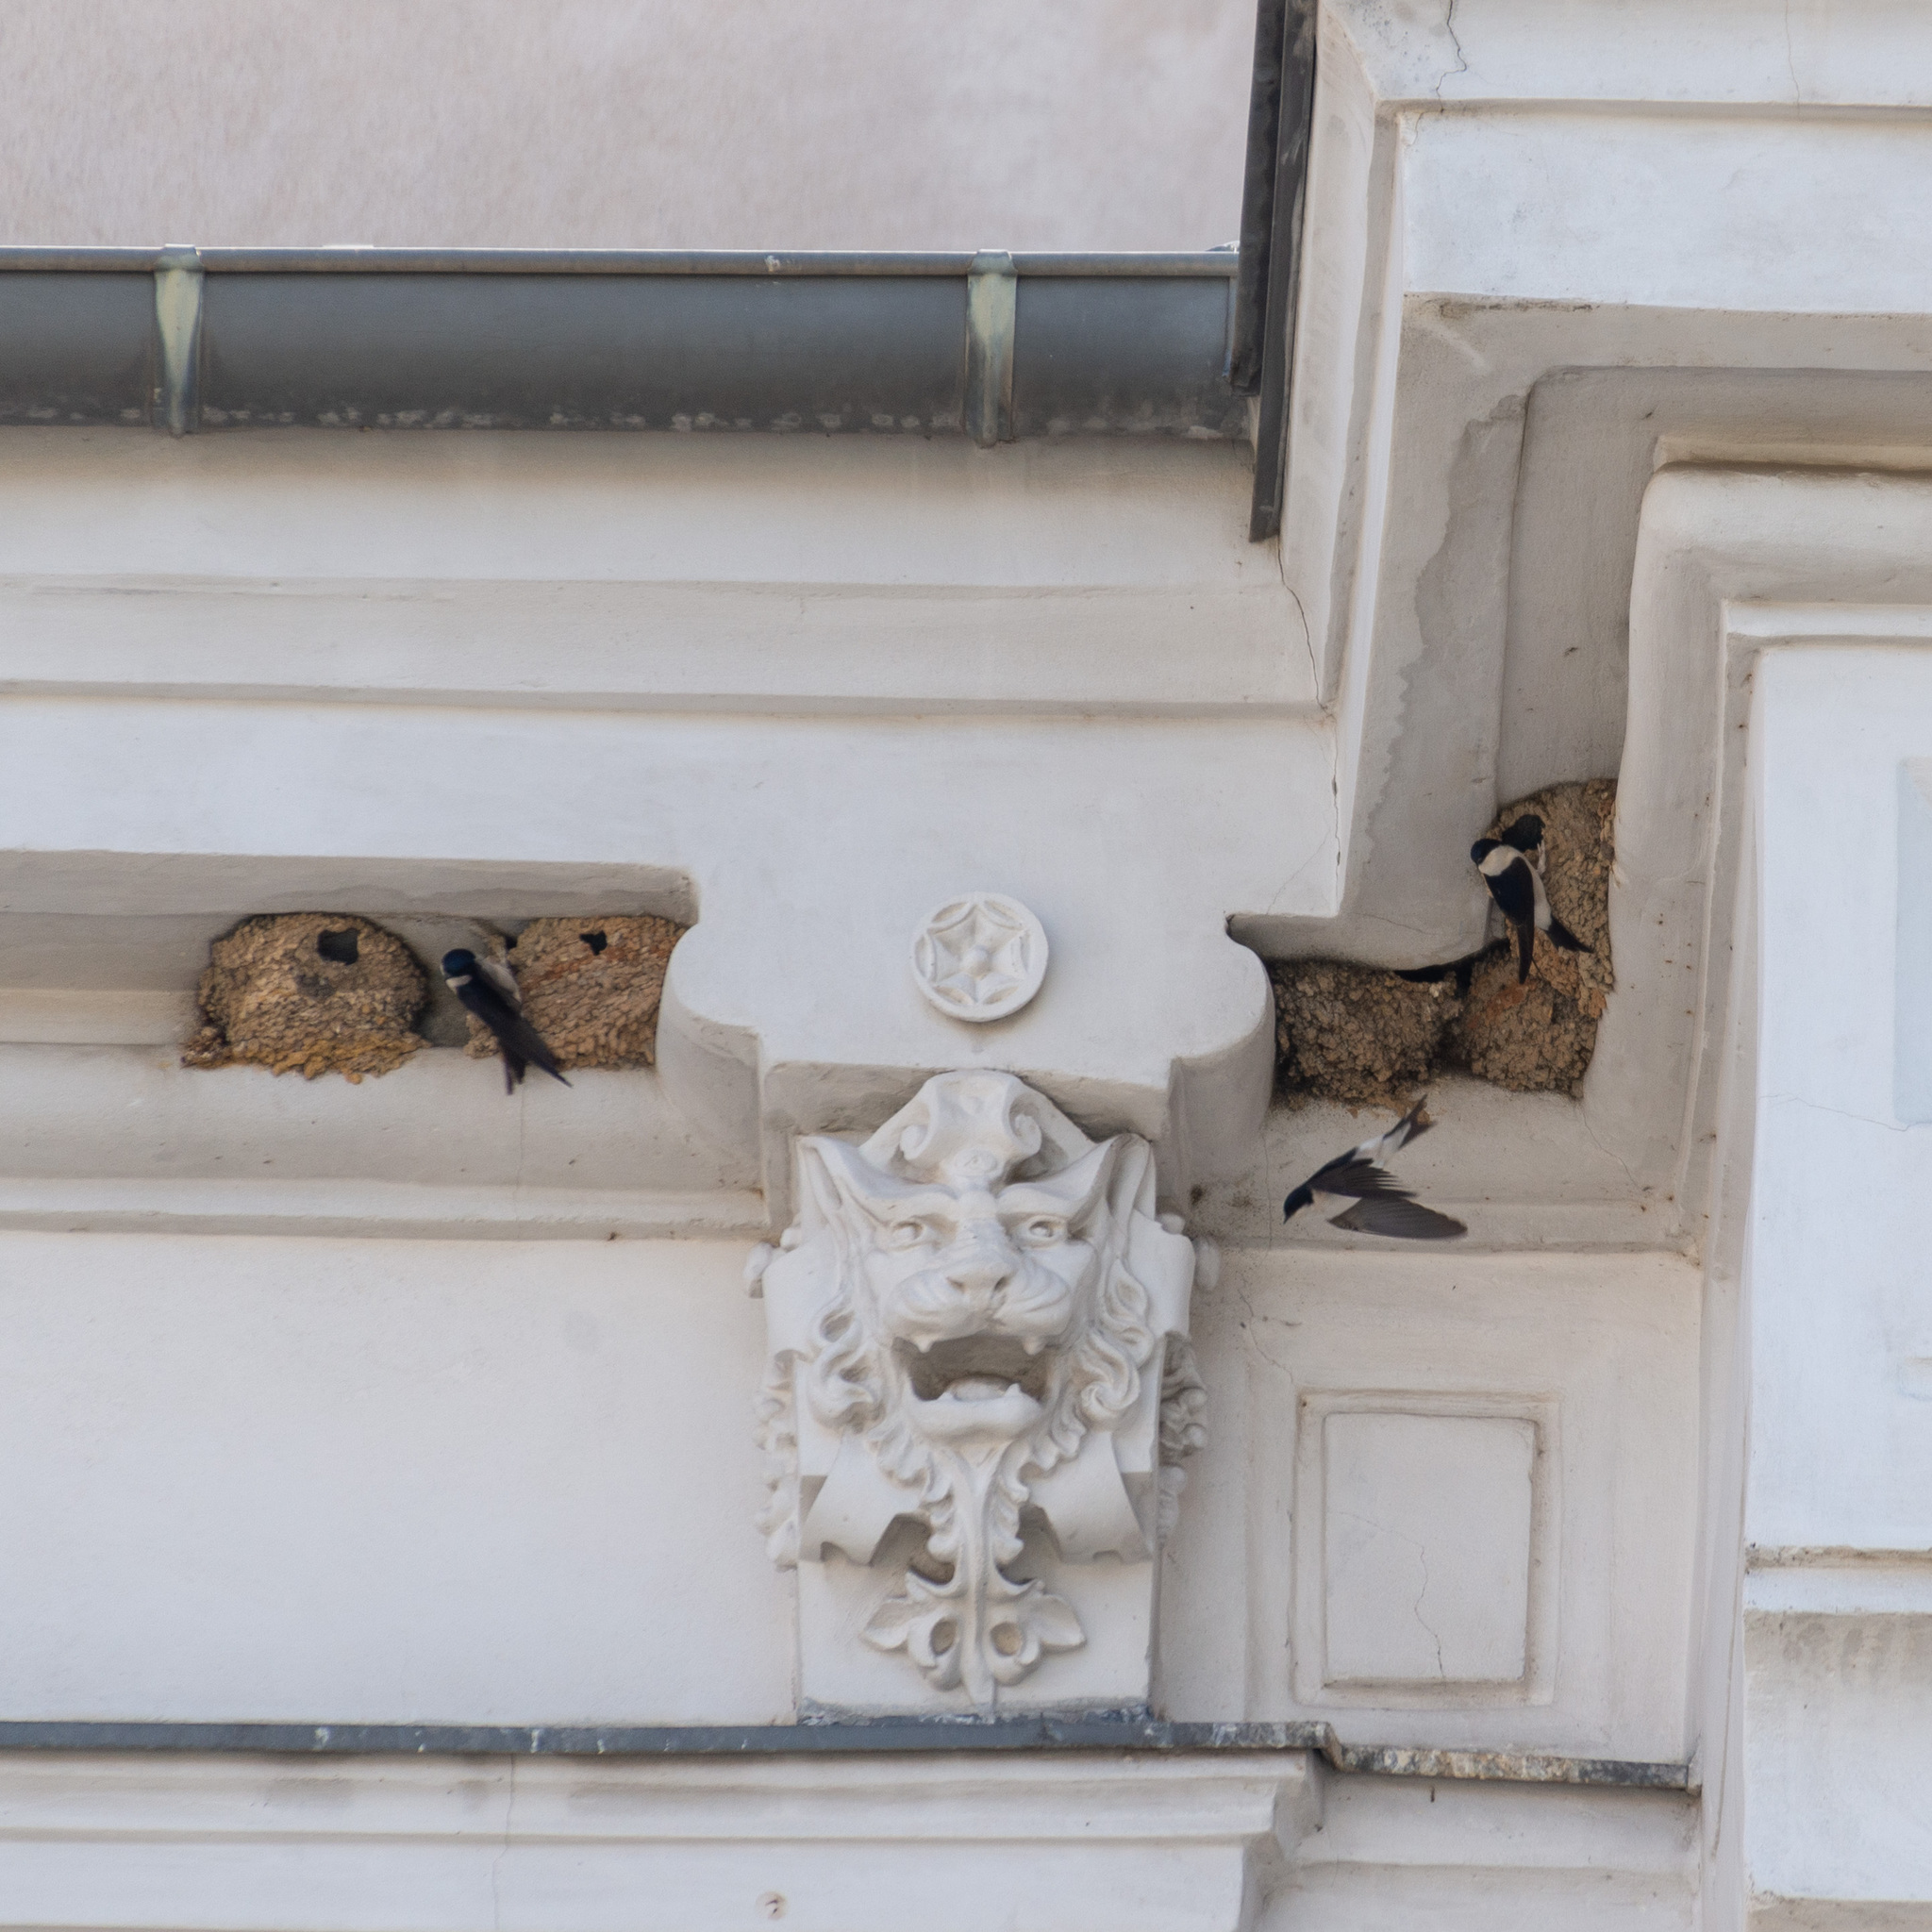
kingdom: Animalia
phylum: Chordata
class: Aves
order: Passeriformes
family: Hirundinidae
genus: Delichon
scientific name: Delichon urbicum
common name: Common house martin
